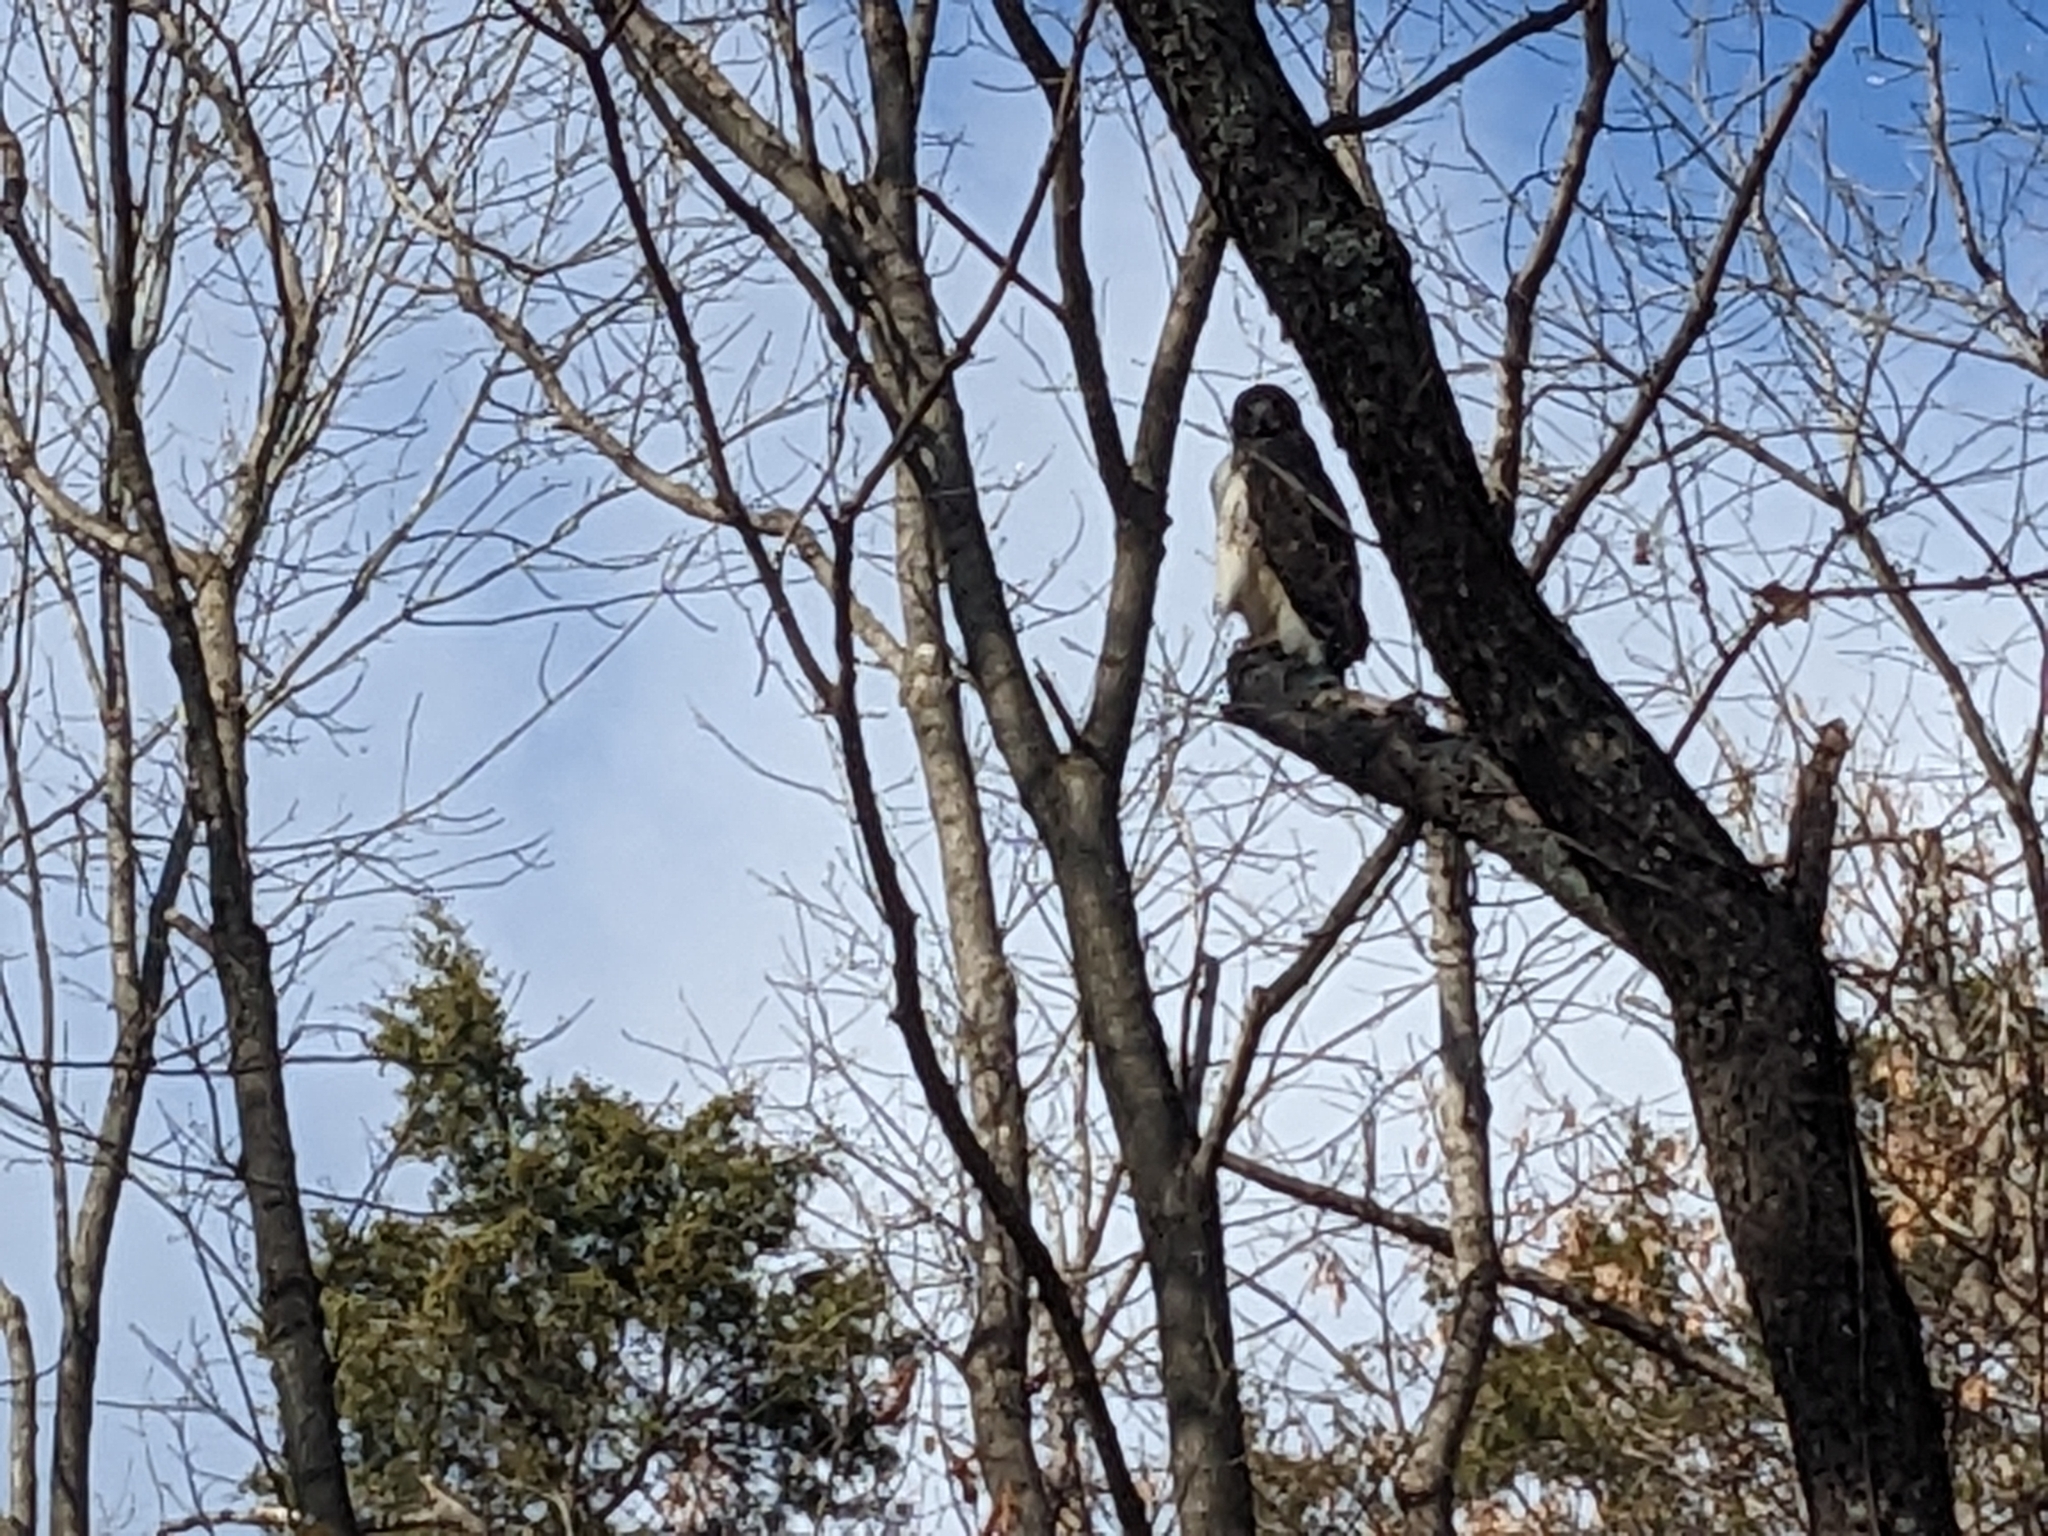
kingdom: Animalia
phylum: Chordata
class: Aves
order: Accipitriformes
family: Accipitridae
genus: Buteo
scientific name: Buteo jamaicensis
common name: Red-tailed hawk
